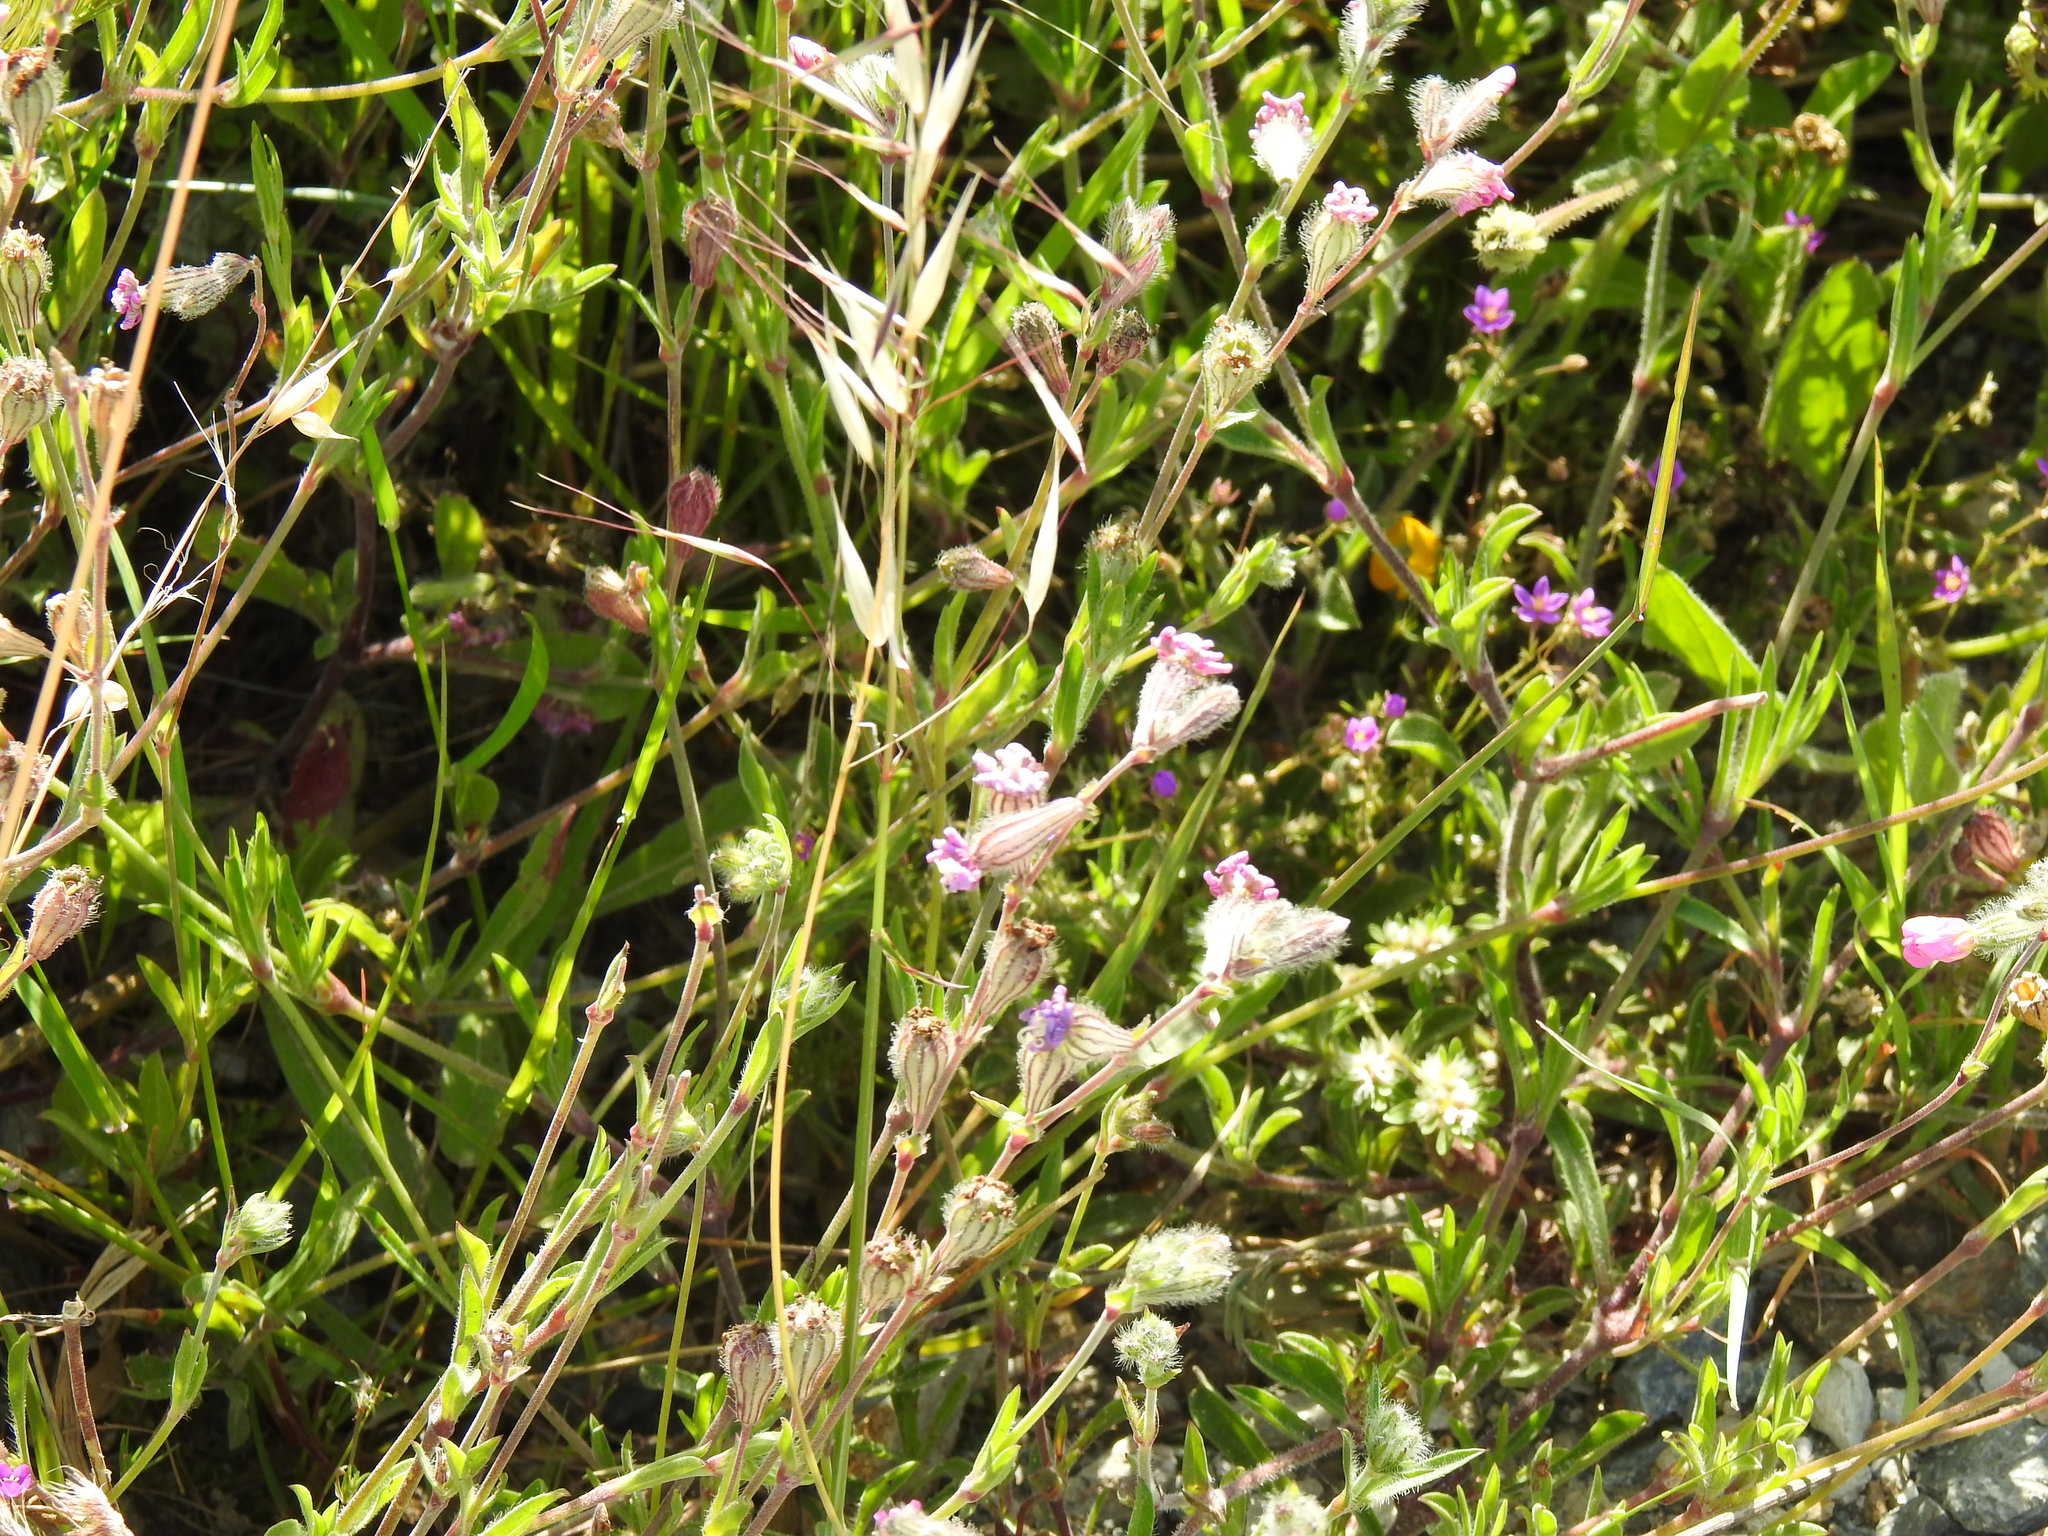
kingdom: Plantae
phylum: Tracheophyta
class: Magnoliopsida
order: Caryophyllales
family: Caryophyllaceae
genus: Silene
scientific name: Silene colorata
